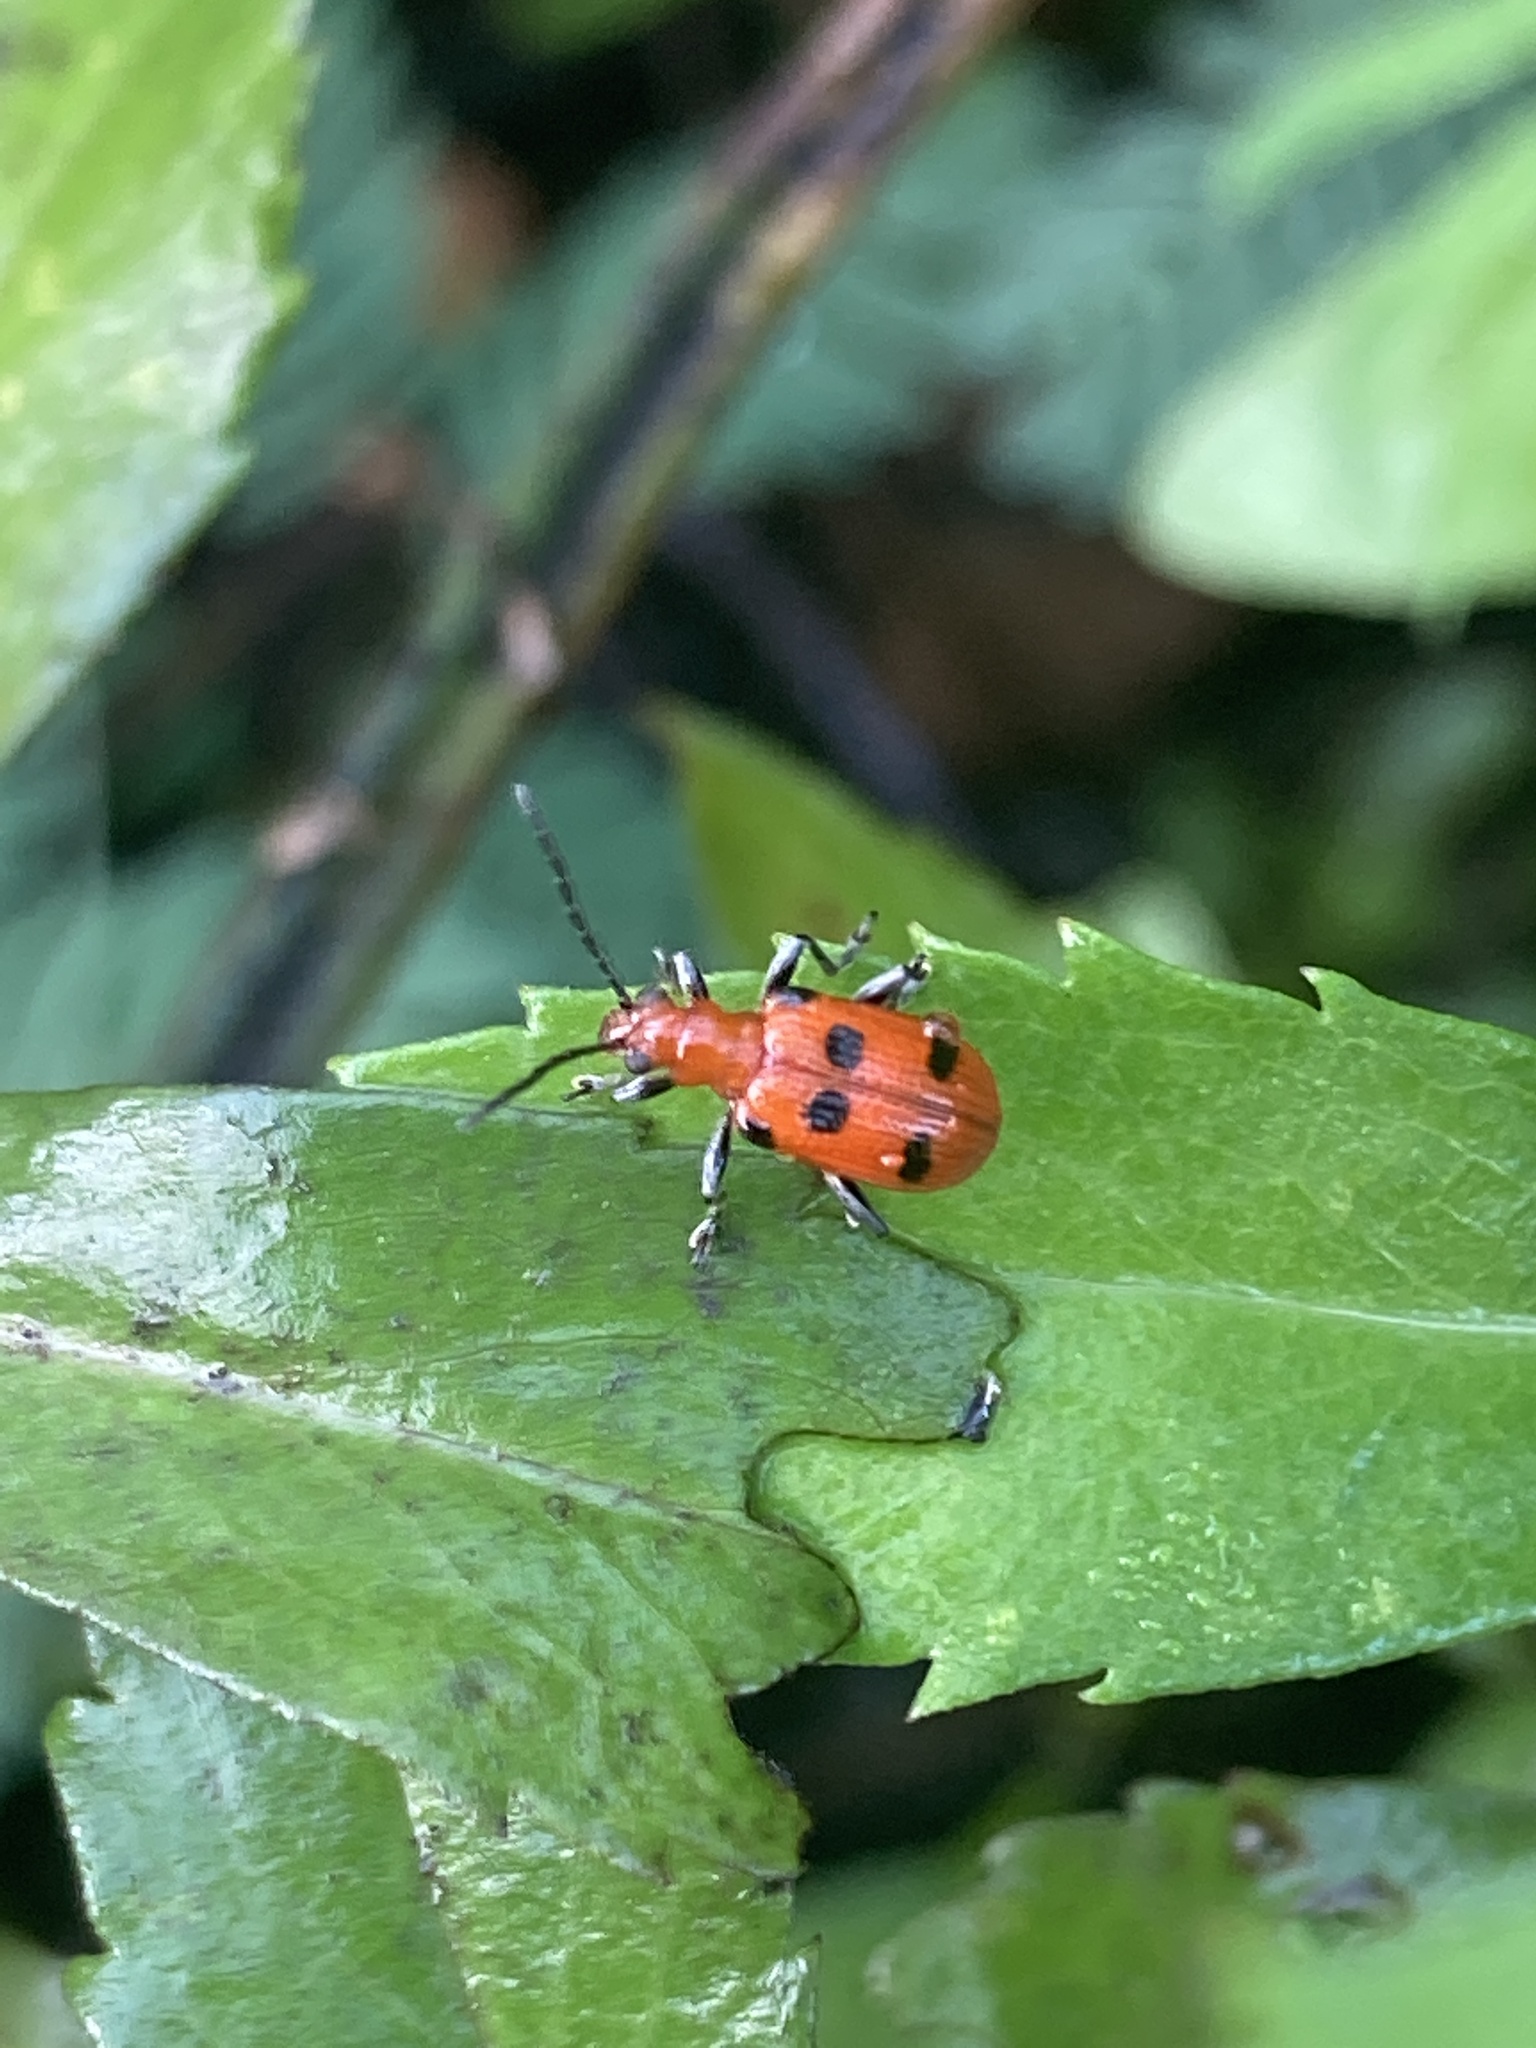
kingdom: Animalia
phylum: Arthropoda
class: Insecta
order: Coleoptera
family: Chrysomelidae
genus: Neolema
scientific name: Neolema sexpunctata
